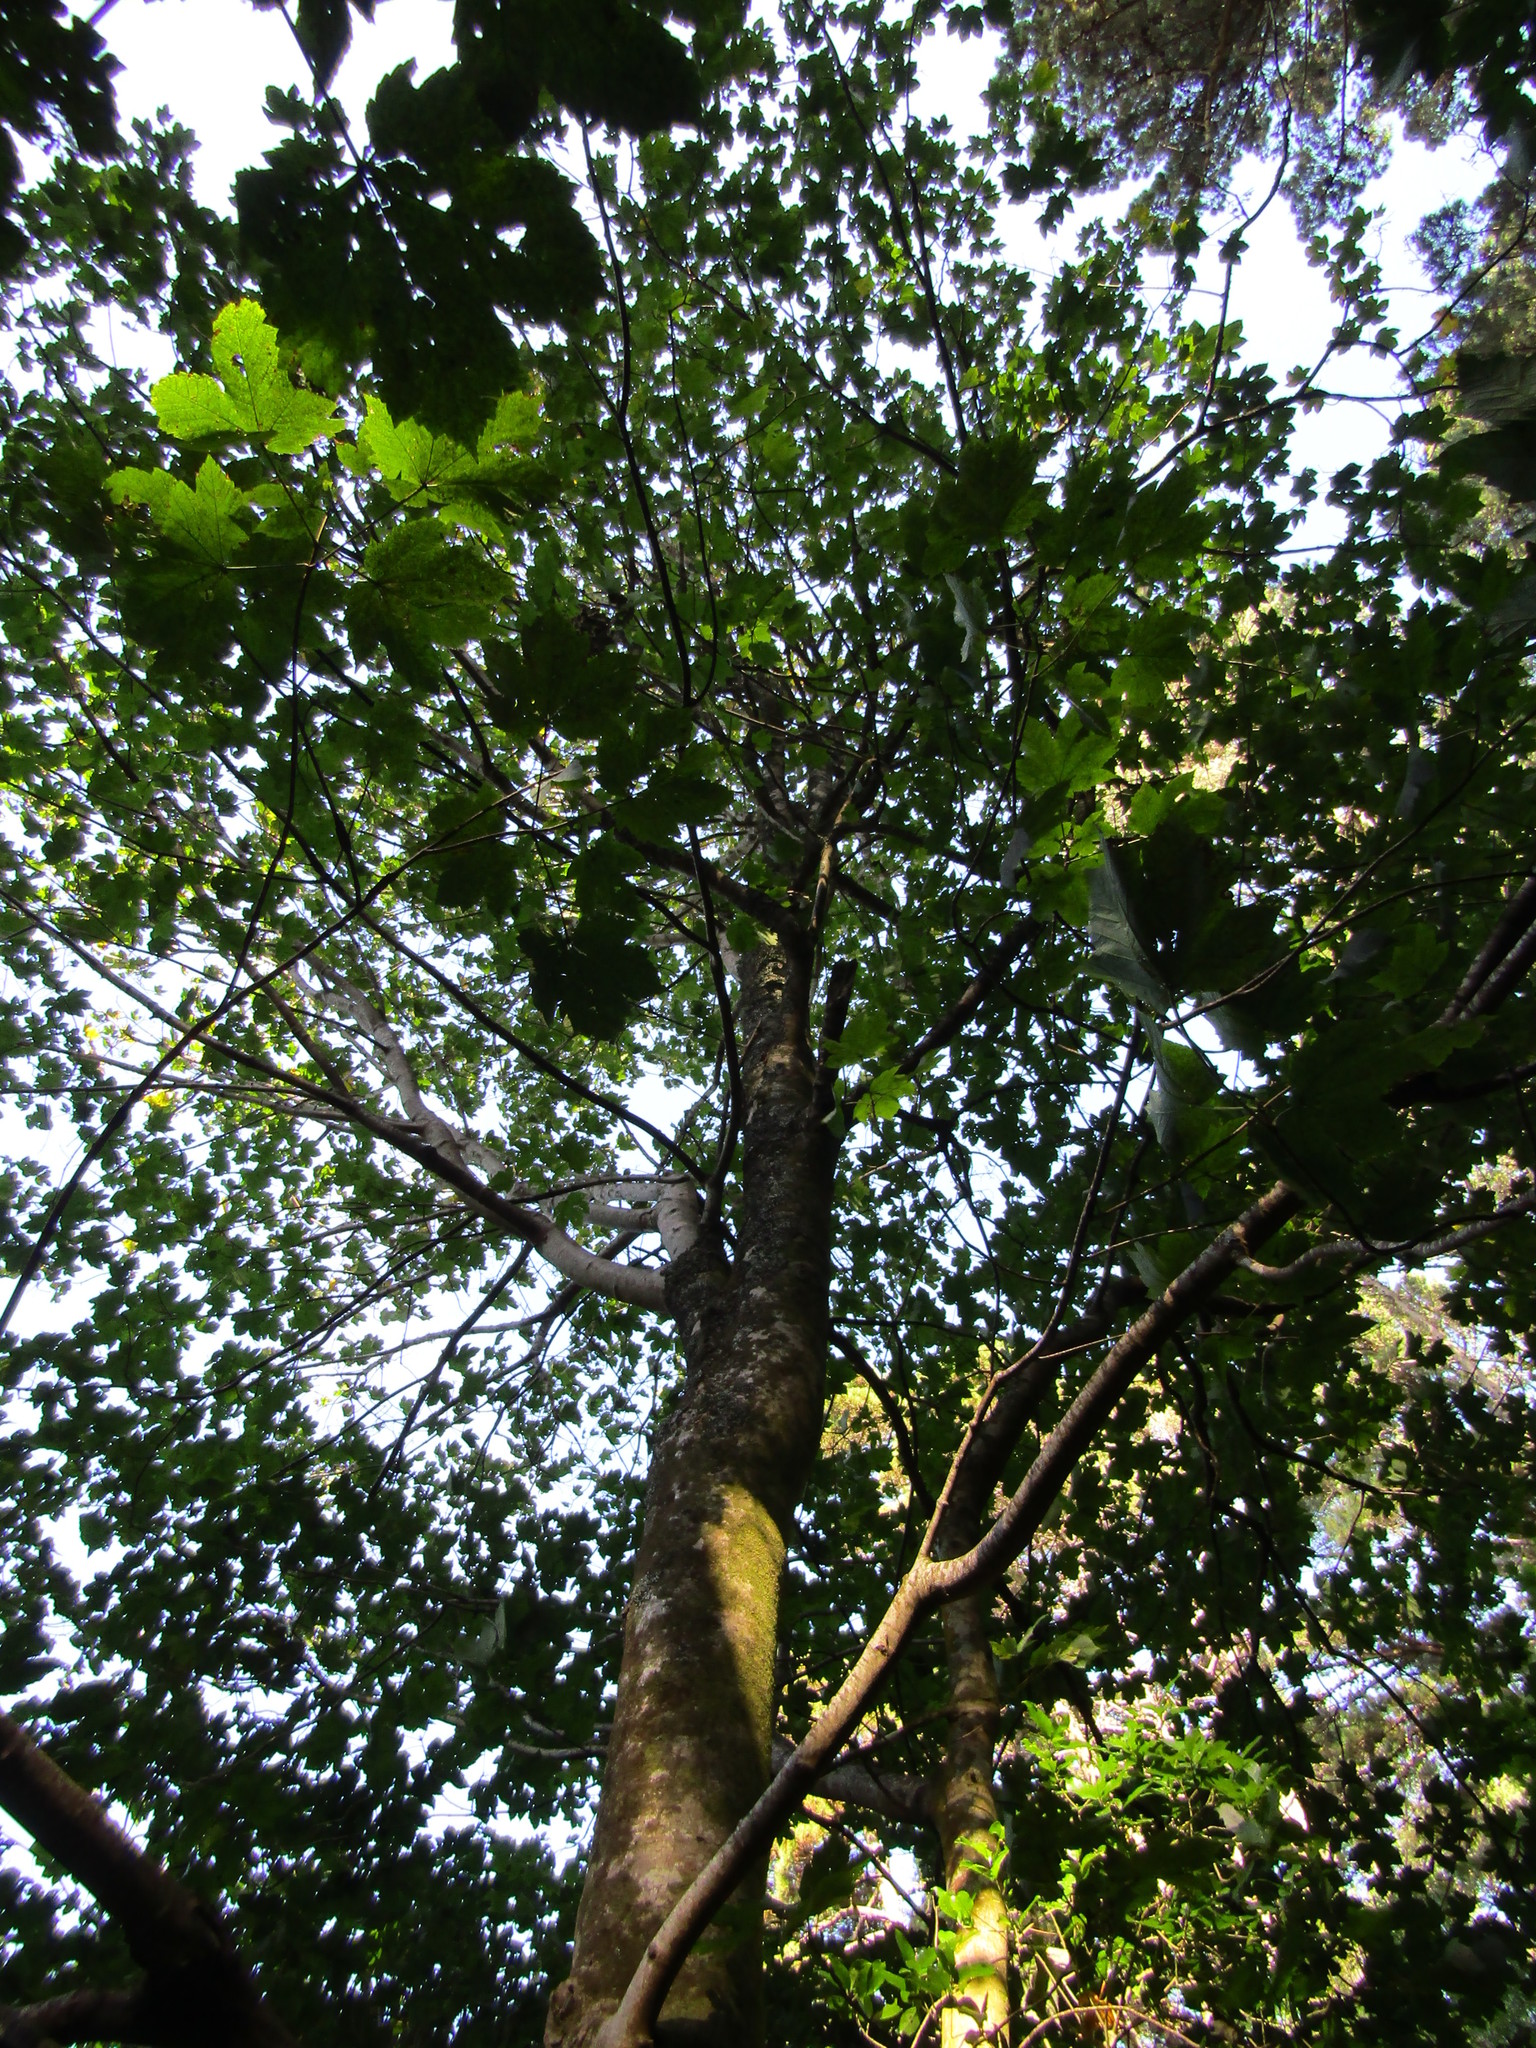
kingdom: Plantae
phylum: Tracheophyta
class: Magnoliopsida
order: Sapindales
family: Sapindaceae
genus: Acer
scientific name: Acer pseudoplatanus
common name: Sycamore
